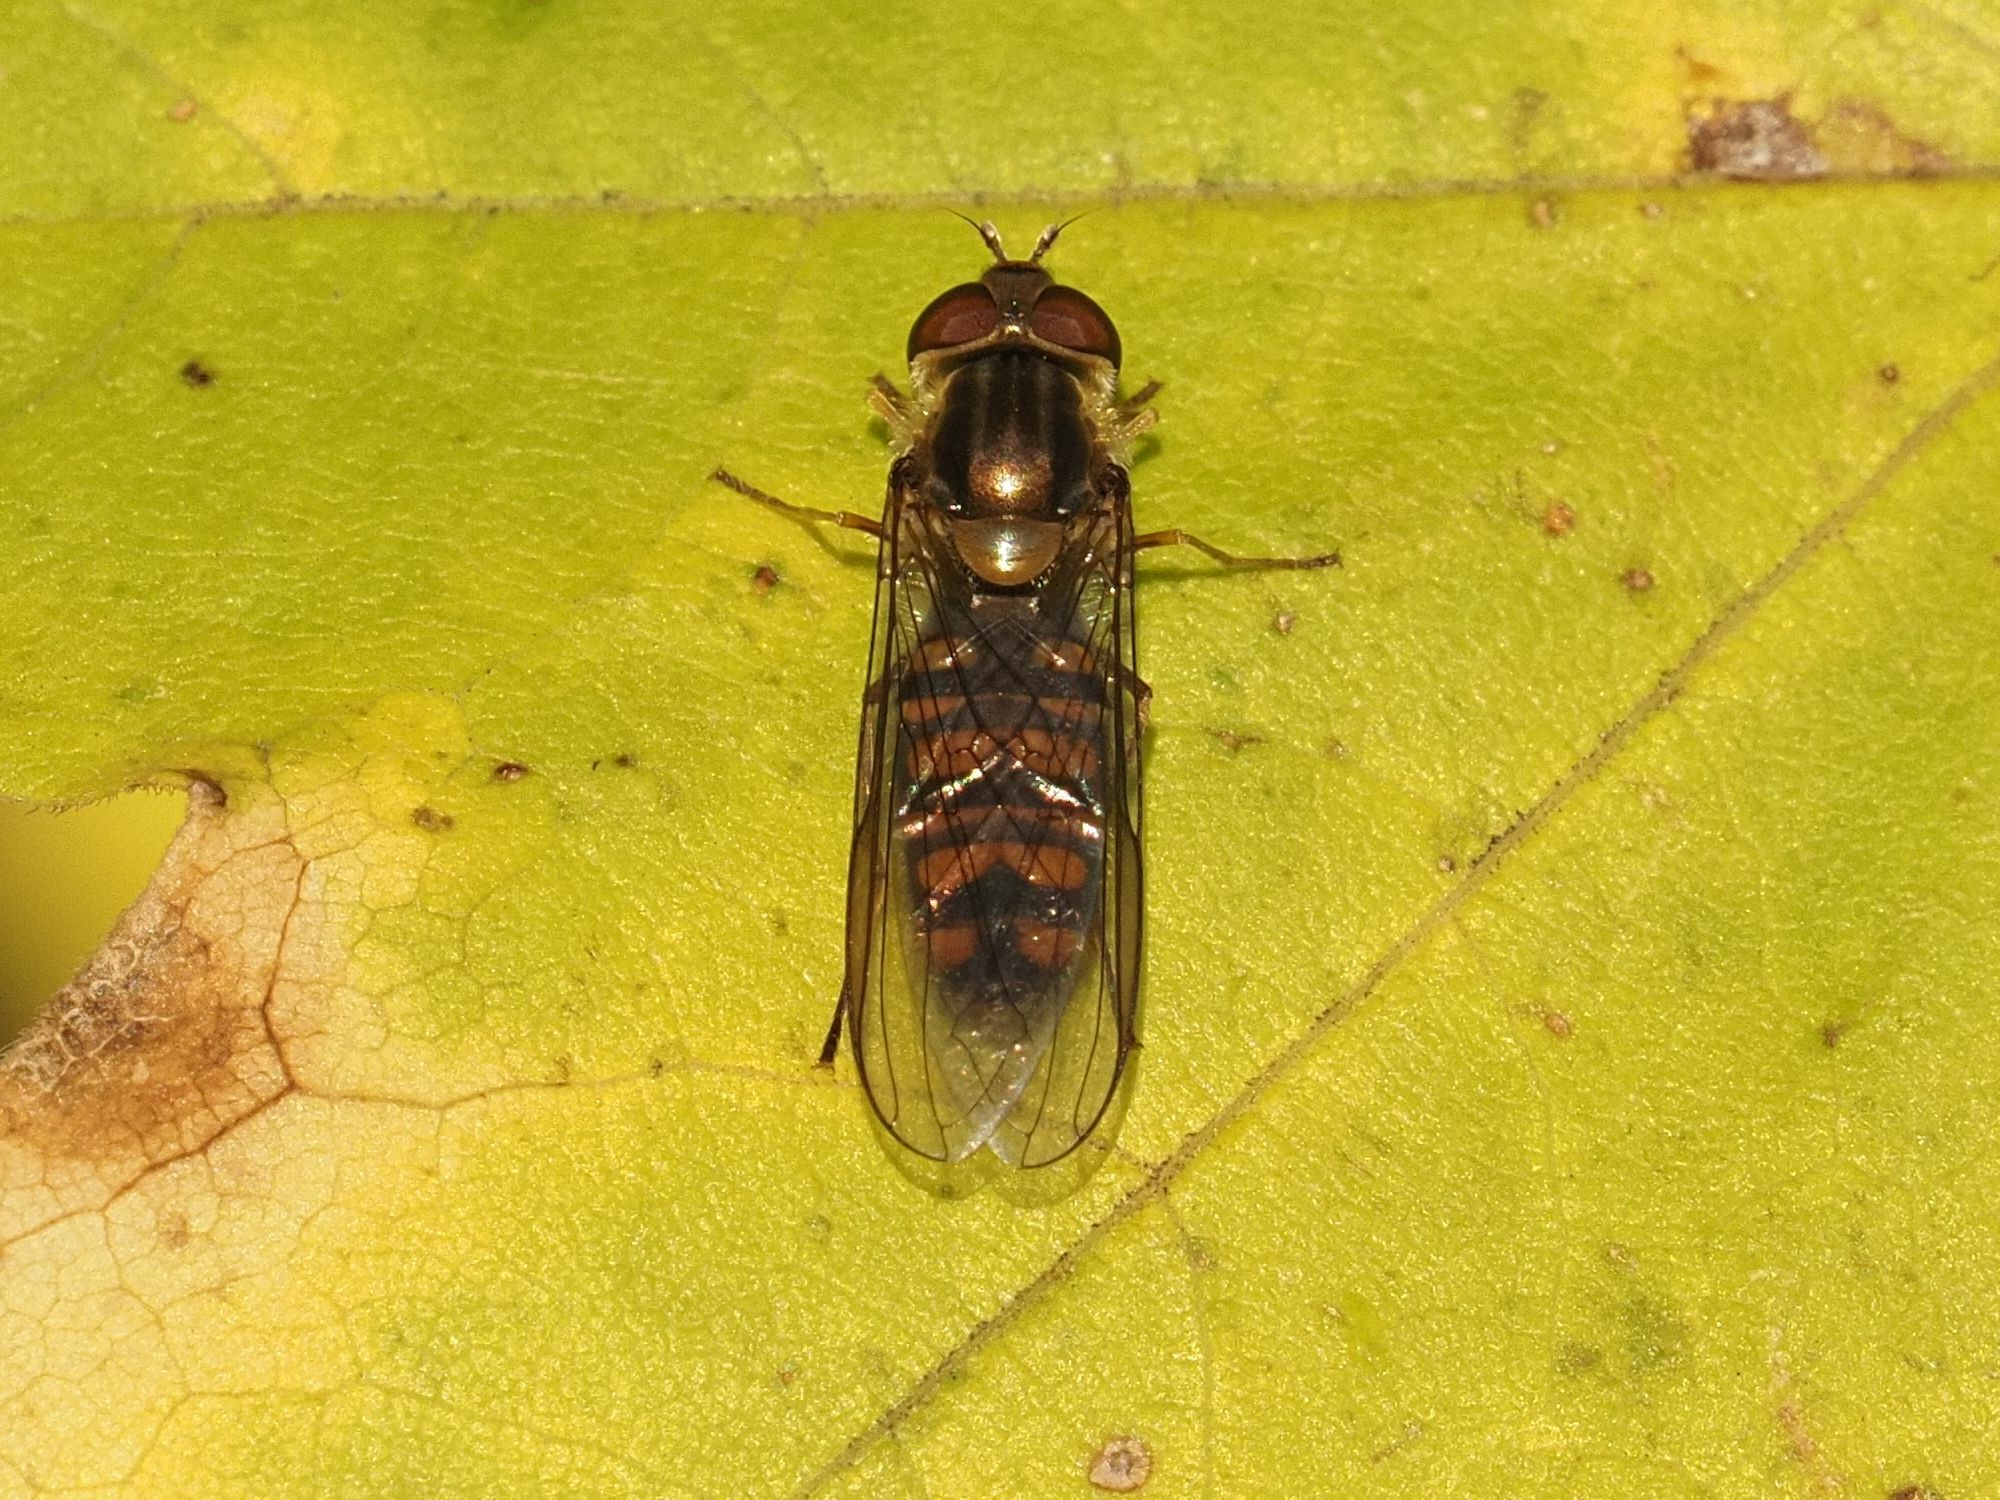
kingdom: Animalia
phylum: Arthropoda
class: Insecta
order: Diptera
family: Syrphidae
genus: Episyrphus
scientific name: Episyrphus balteatus
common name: Marmalade hoverfly
